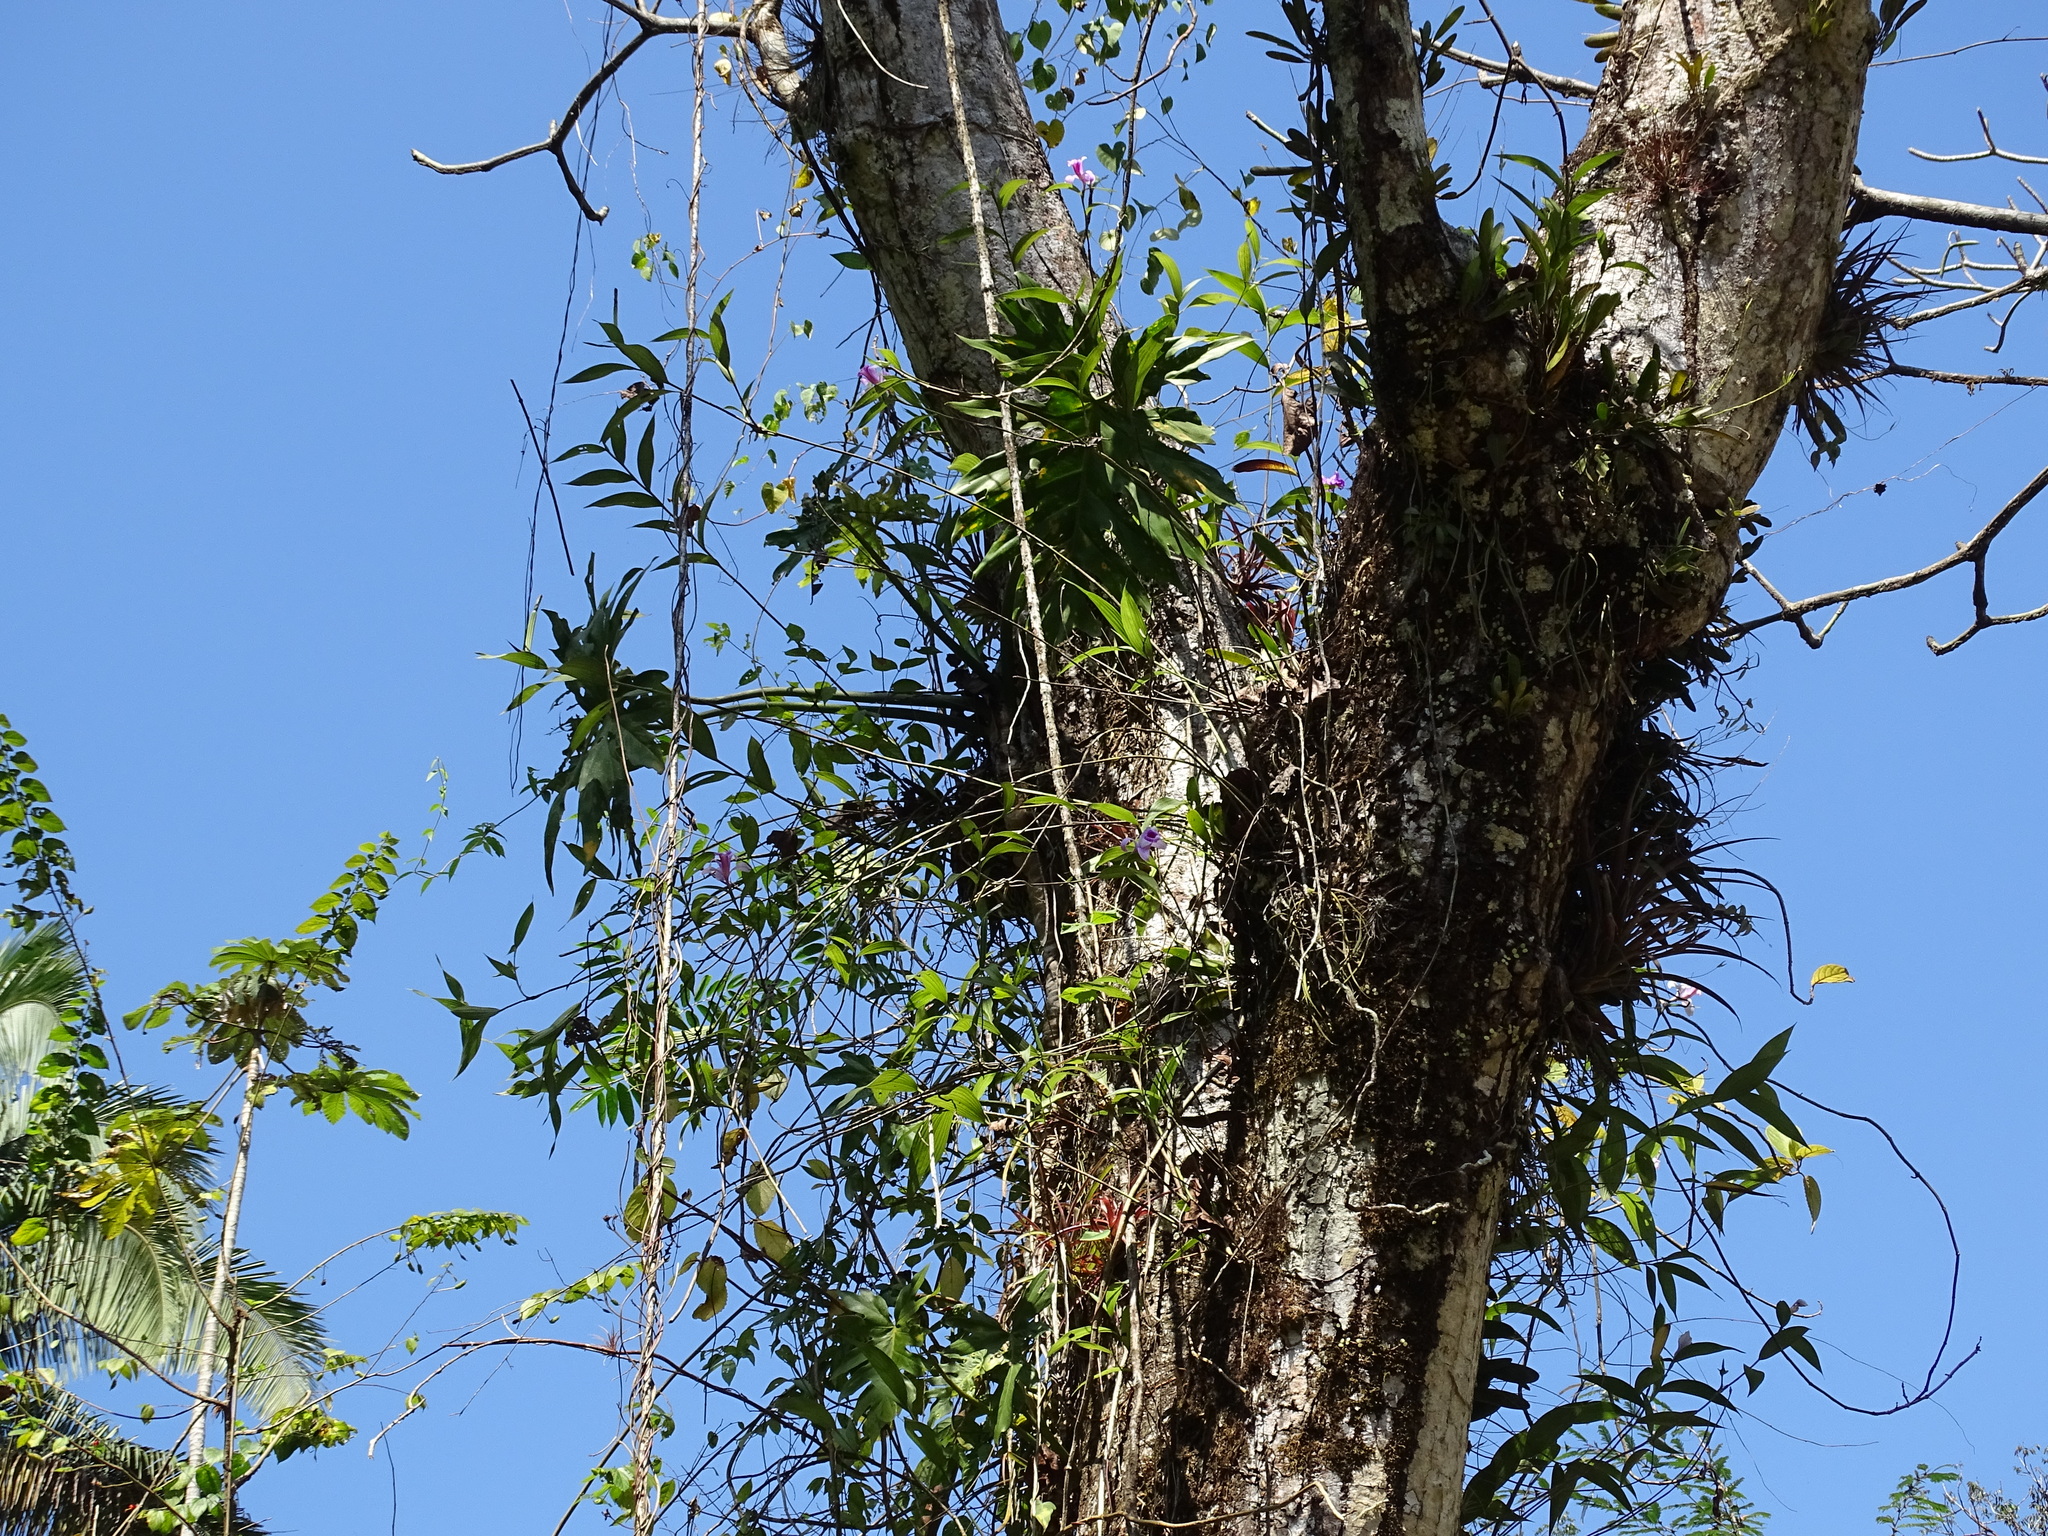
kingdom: Plantae
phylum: Tracheophyta
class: Liliopsida
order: Asparagales
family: Orchidaceae
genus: Sobralia
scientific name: Sobralia decora
